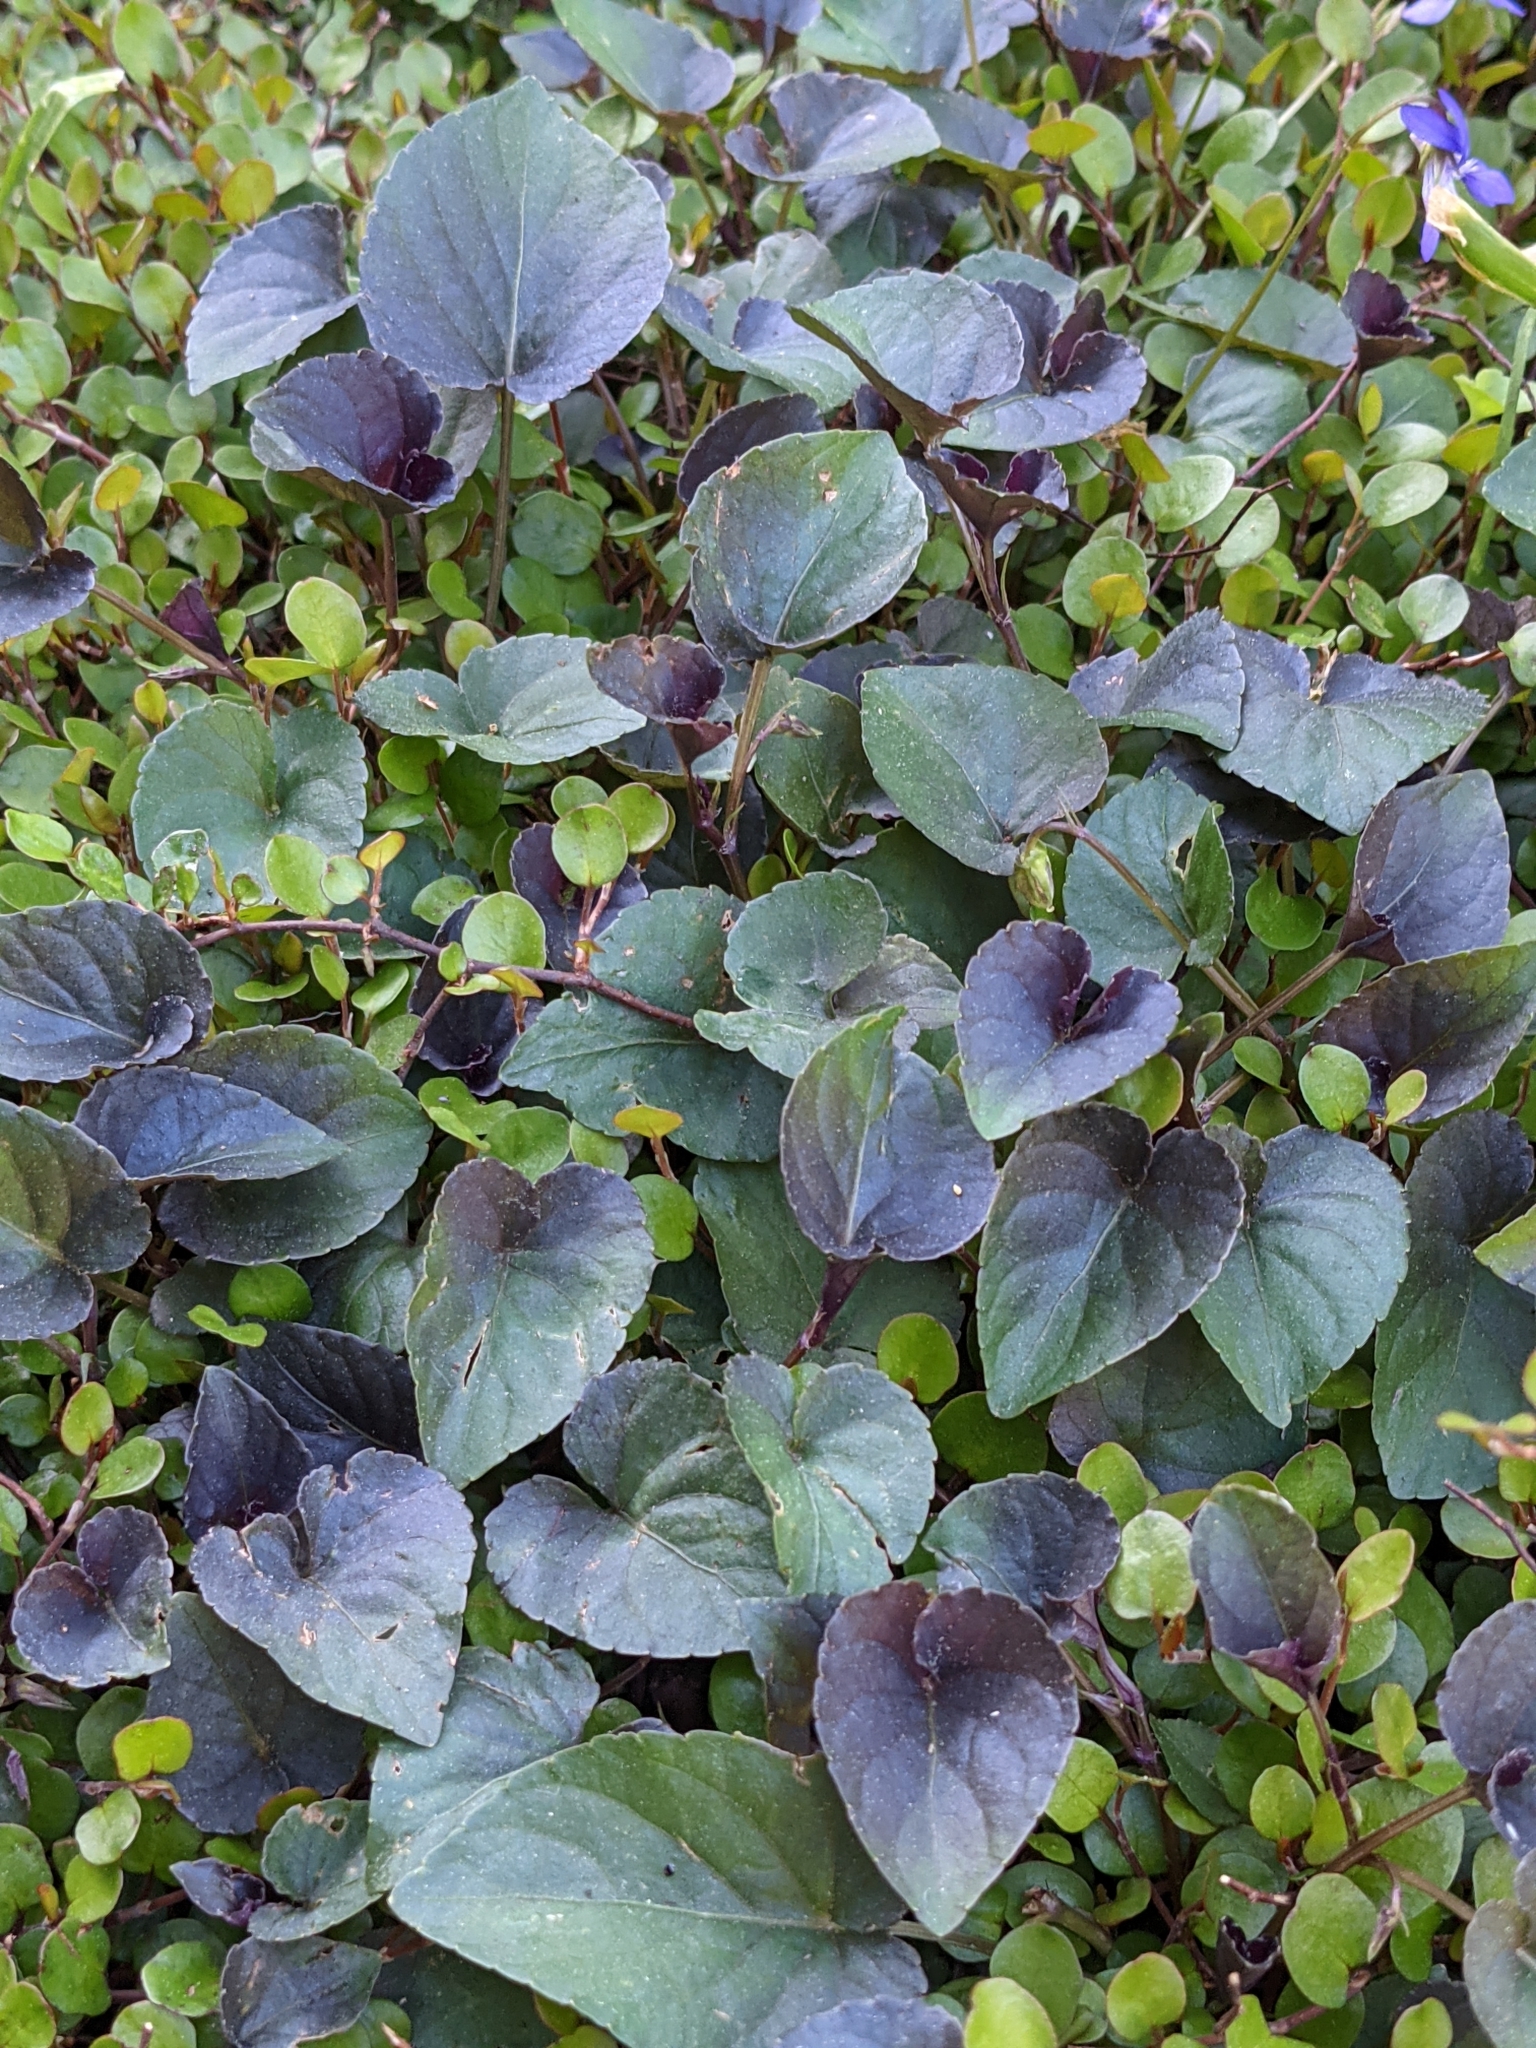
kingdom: Plantae
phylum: Tracheophyta
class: Magnoliopsida
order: Malpighiales
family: Violaceae
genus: Viola
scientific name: Viola riviniana
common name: Common dog-violet
